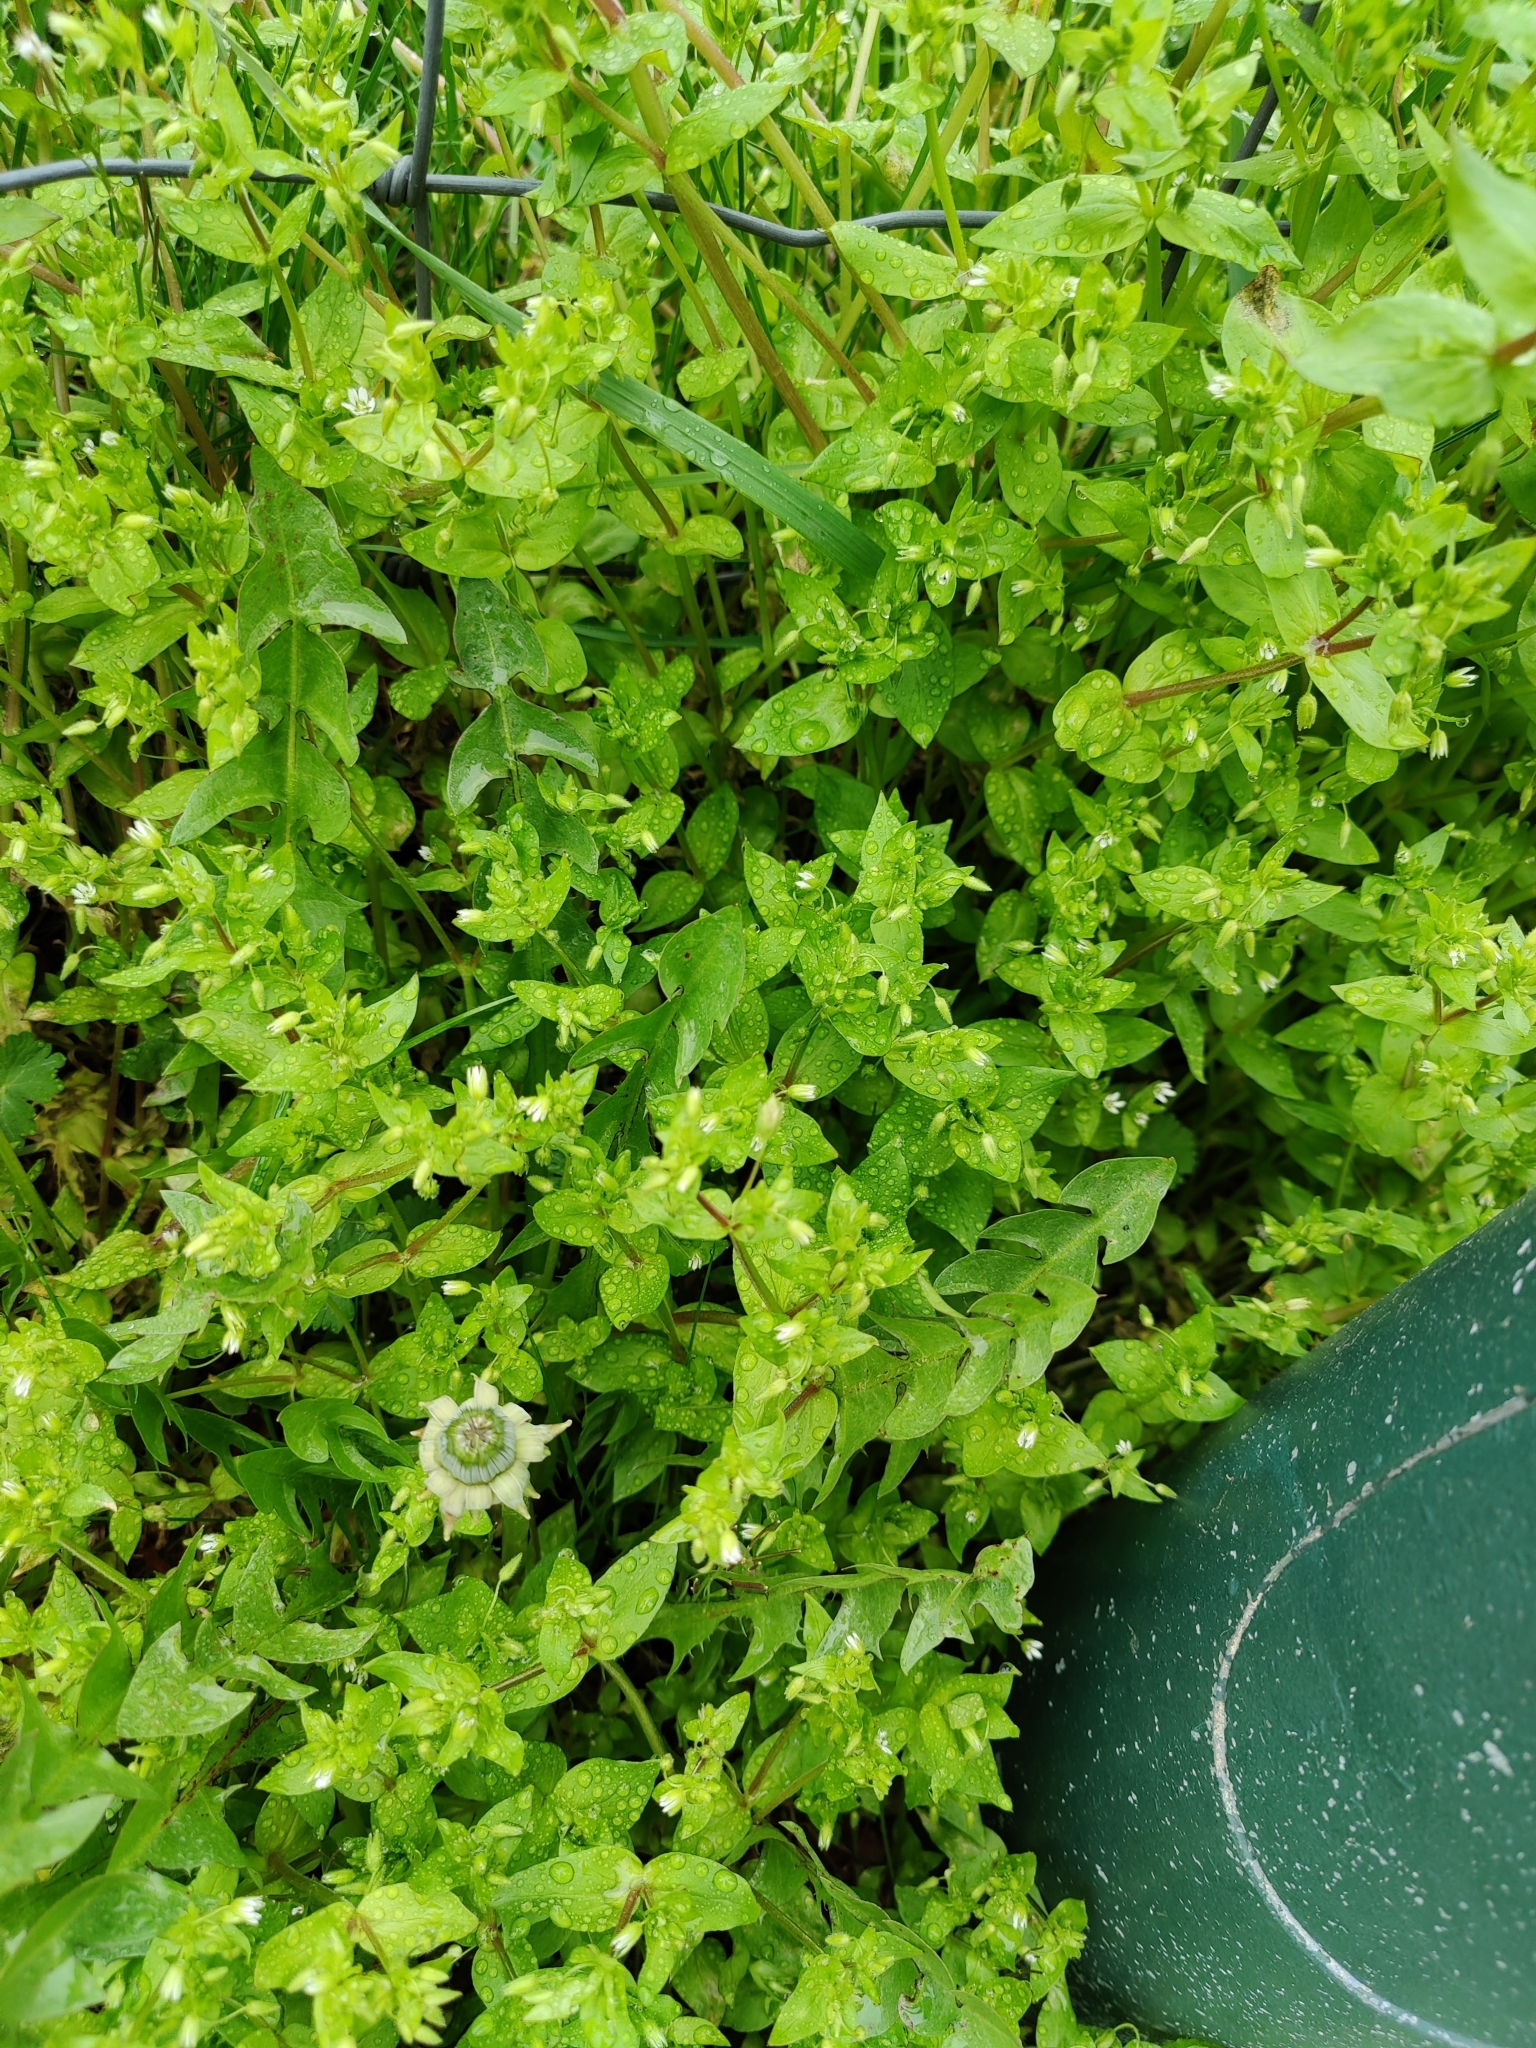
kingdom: Plantae
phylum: Tracheophyta
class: Magnoliopsida
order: Caryophyllales
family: Caryophyllaceae
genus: Stellaria
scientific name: Stellaria media
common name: Common chickweed
